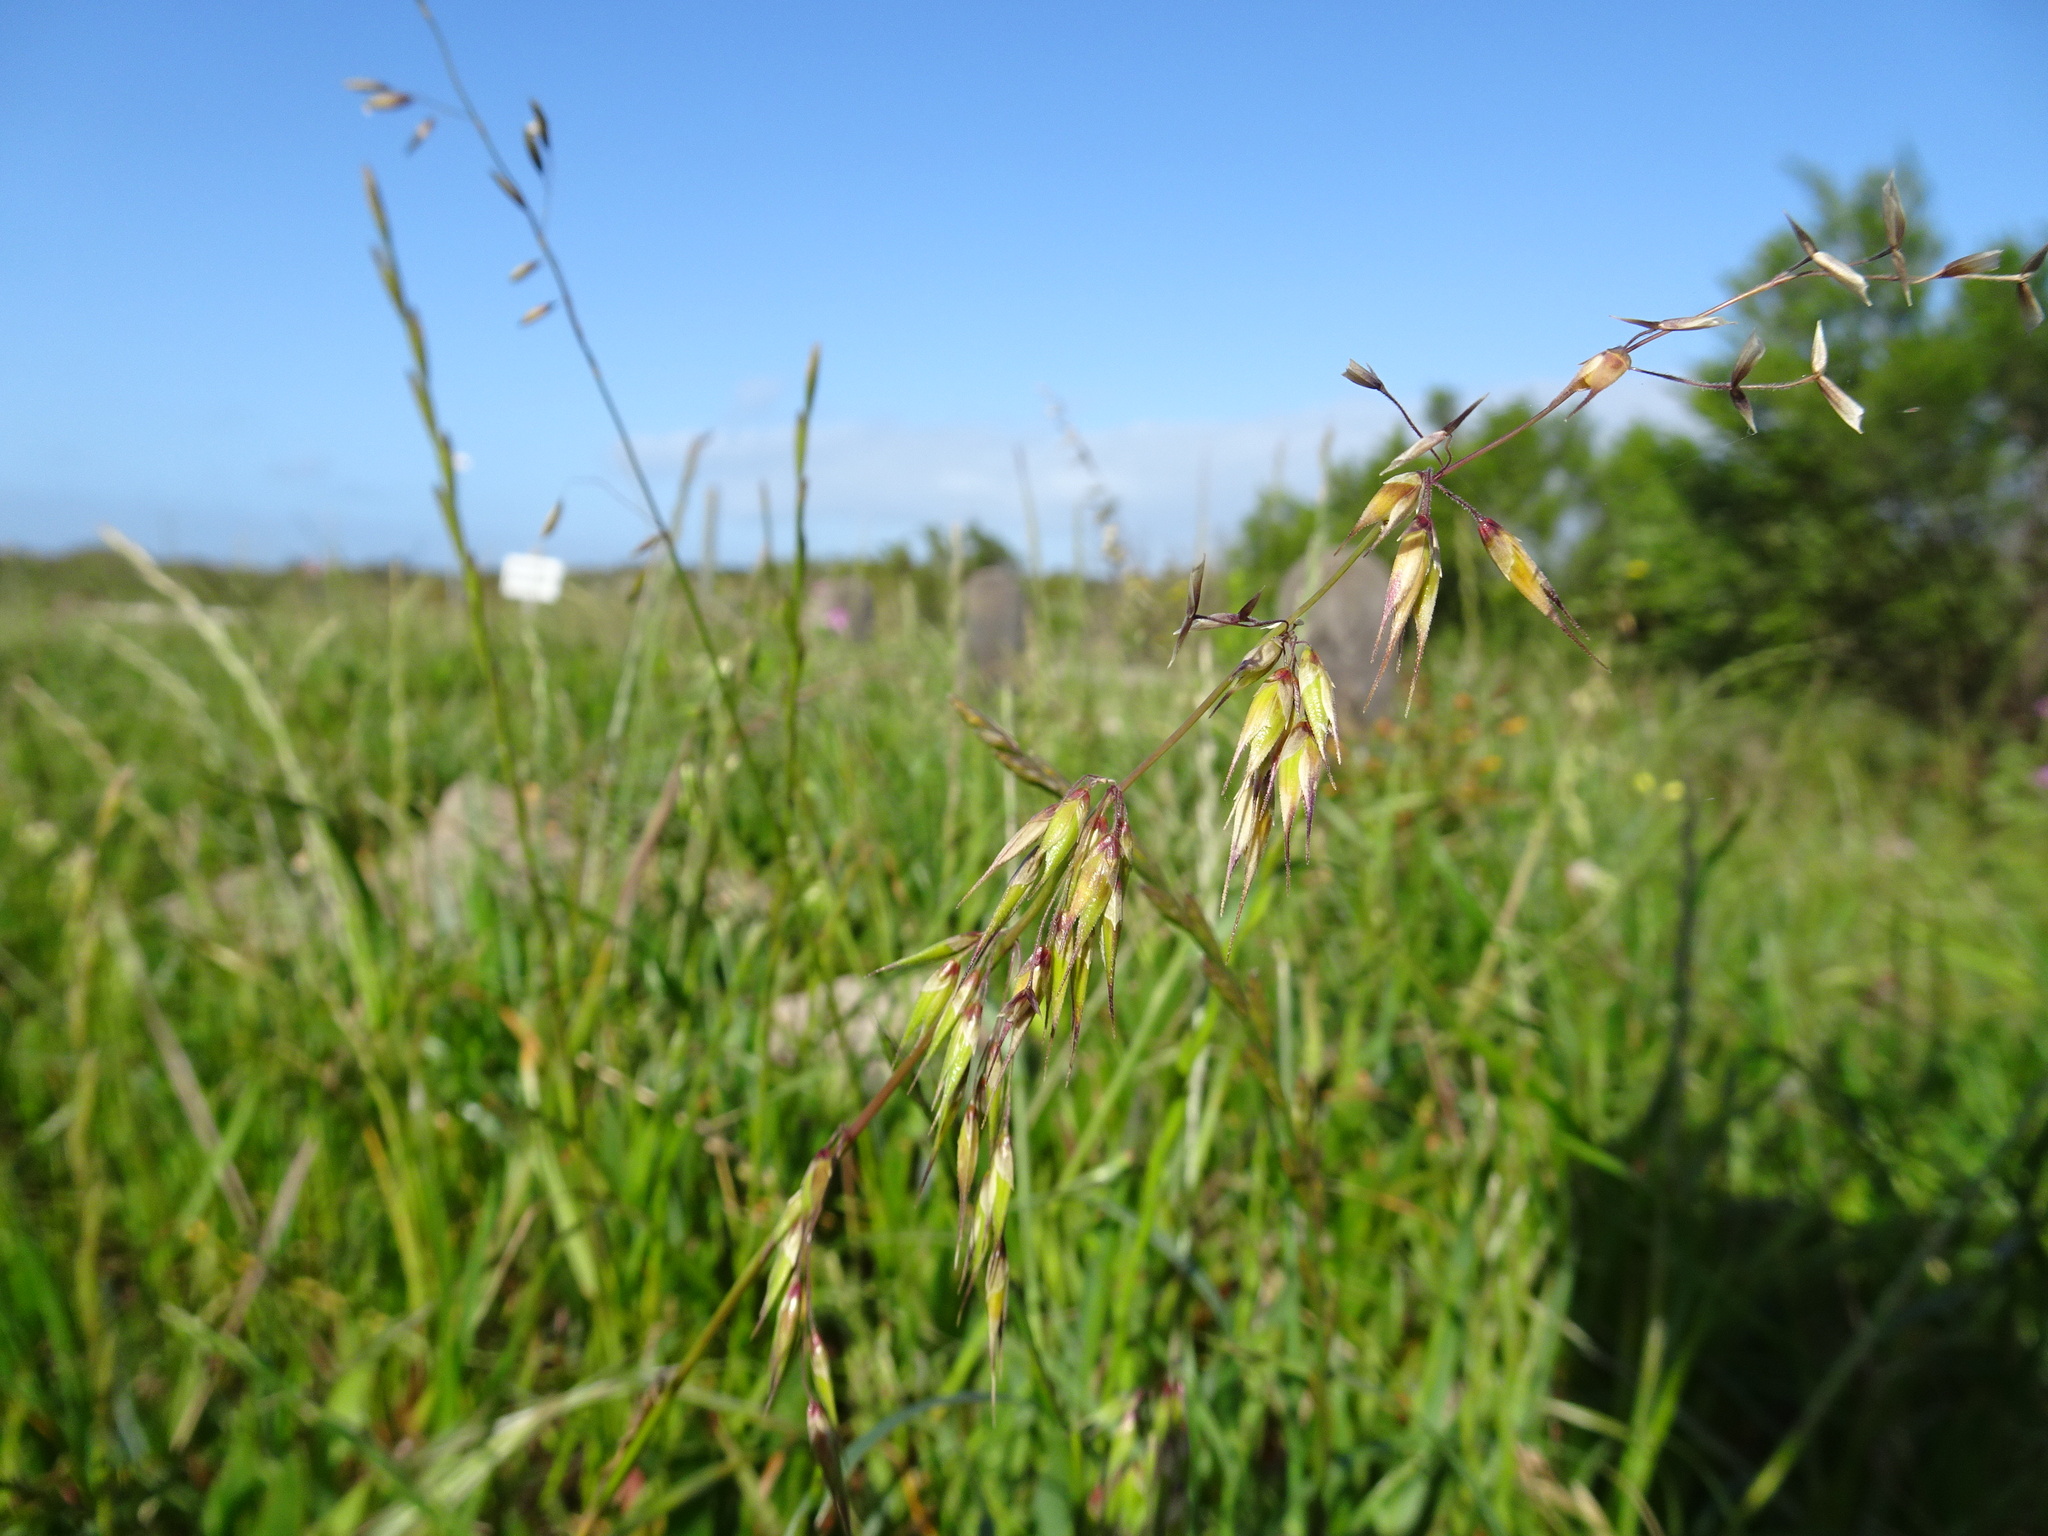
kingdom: Plantae
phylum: Tracheophyta
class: Liliopsida
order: Poales
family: Poaceae
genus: Ehrharta
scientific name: Ehrharta longiflora
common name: Longflowered veldtgrass
